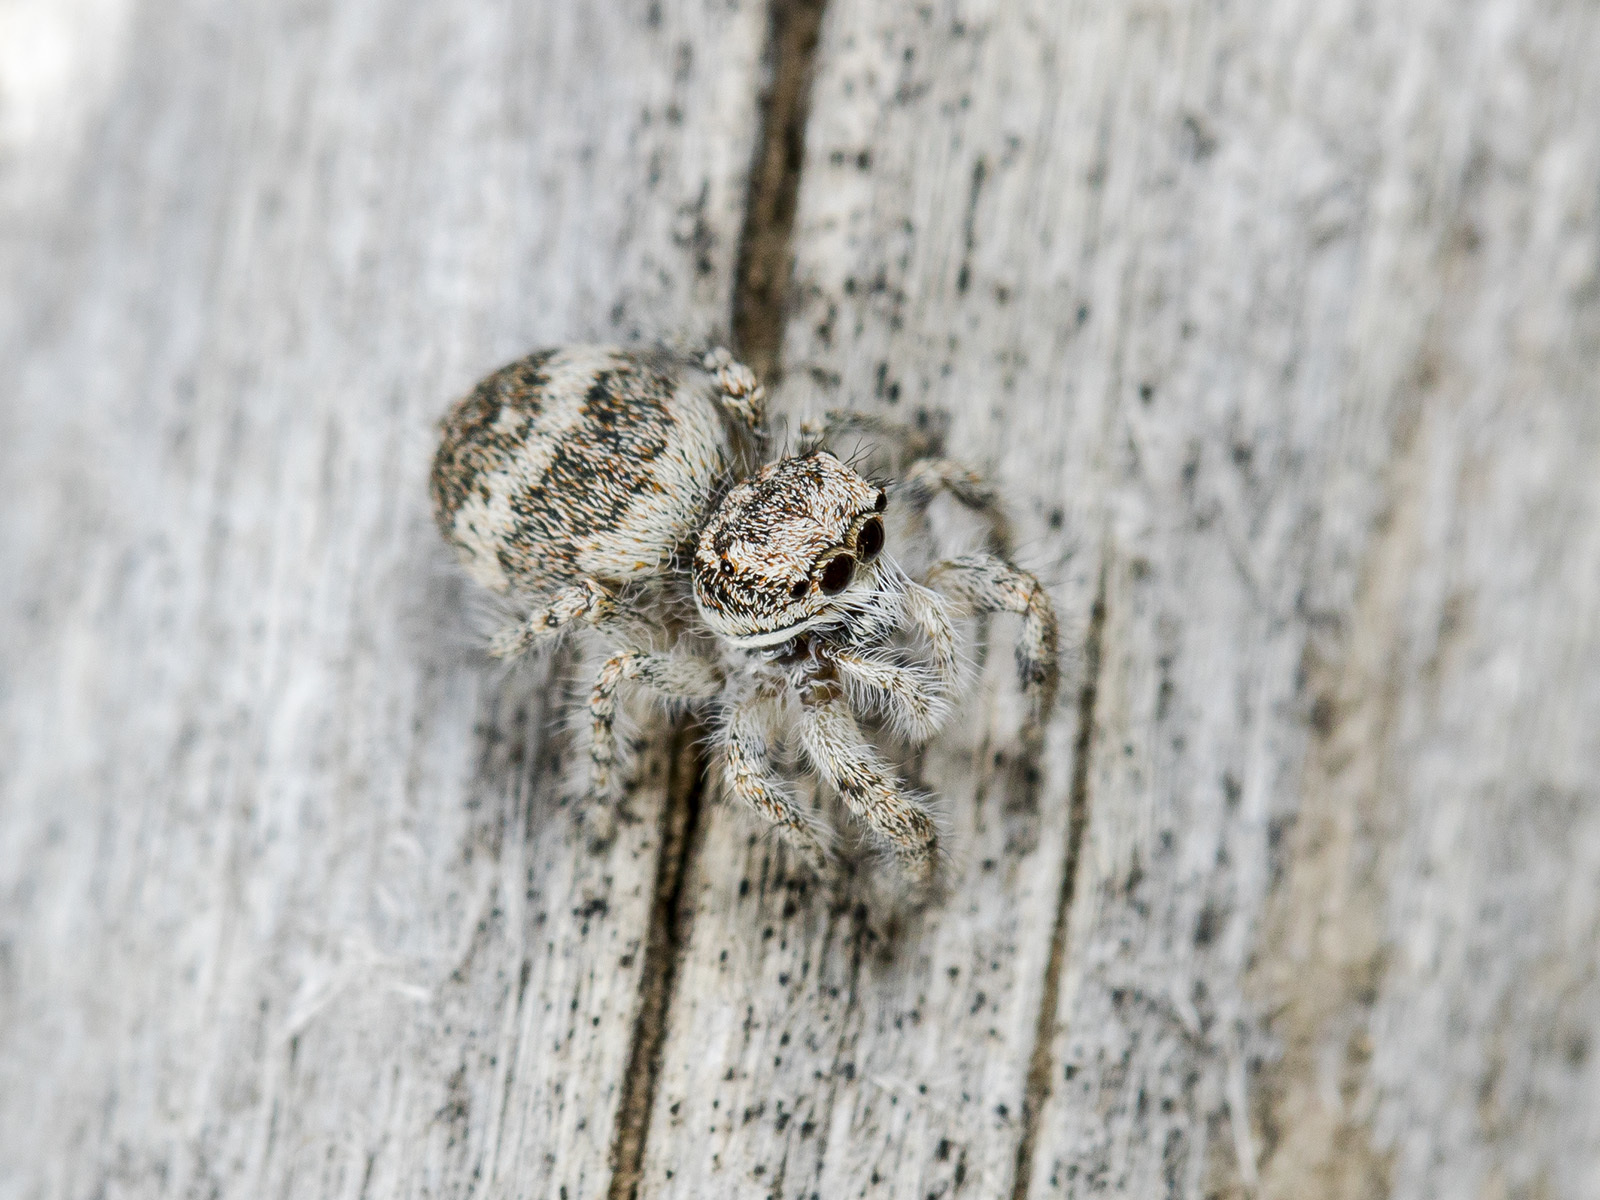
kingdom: Animalia
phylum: Arthropoda
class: Arachnida
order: Araneae
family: Salticidae
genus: Pseudomogrus
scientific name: Pseudomogrus albocinctus
